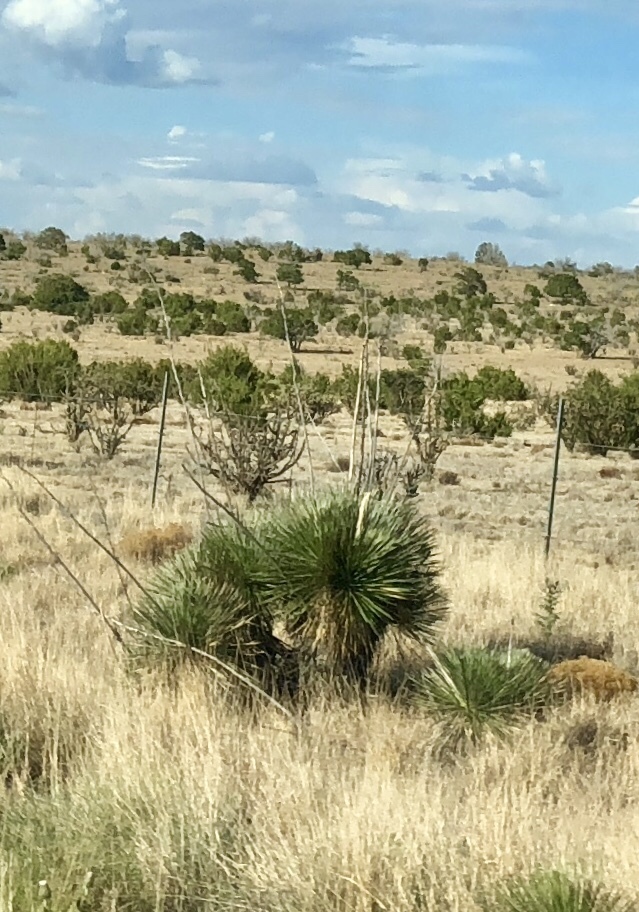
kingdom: Plantae
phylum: Tracheophyta
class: Liliopsida
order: Asparagales
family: Asparagaceae
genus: Yucca
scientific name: Yucca elata
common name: Palmella
